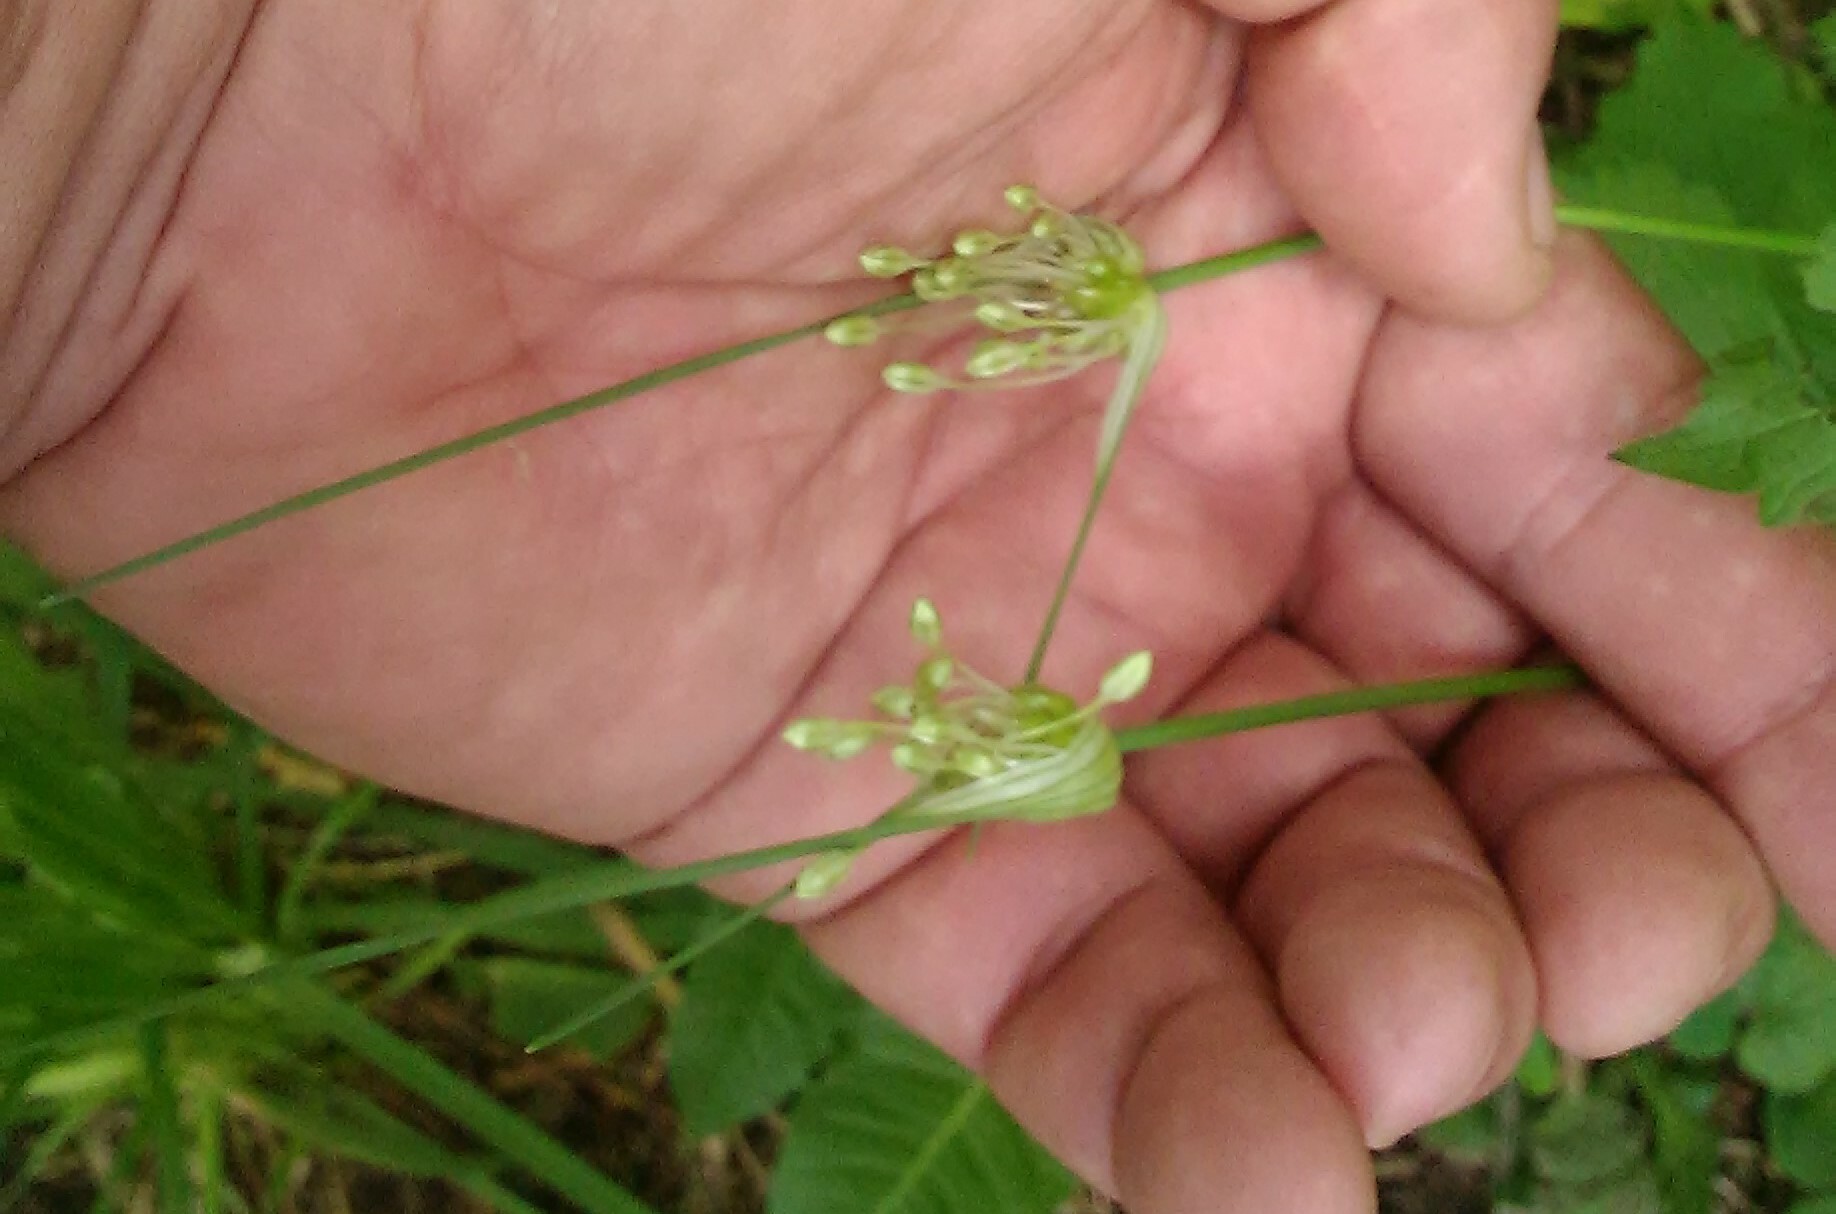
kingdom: Plantae
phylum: Tracheophyta
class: Liliopsida
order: Asparagales
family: Amaryllidaceae
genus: Allium
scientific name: Allium oleraceum
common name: Field garlic
